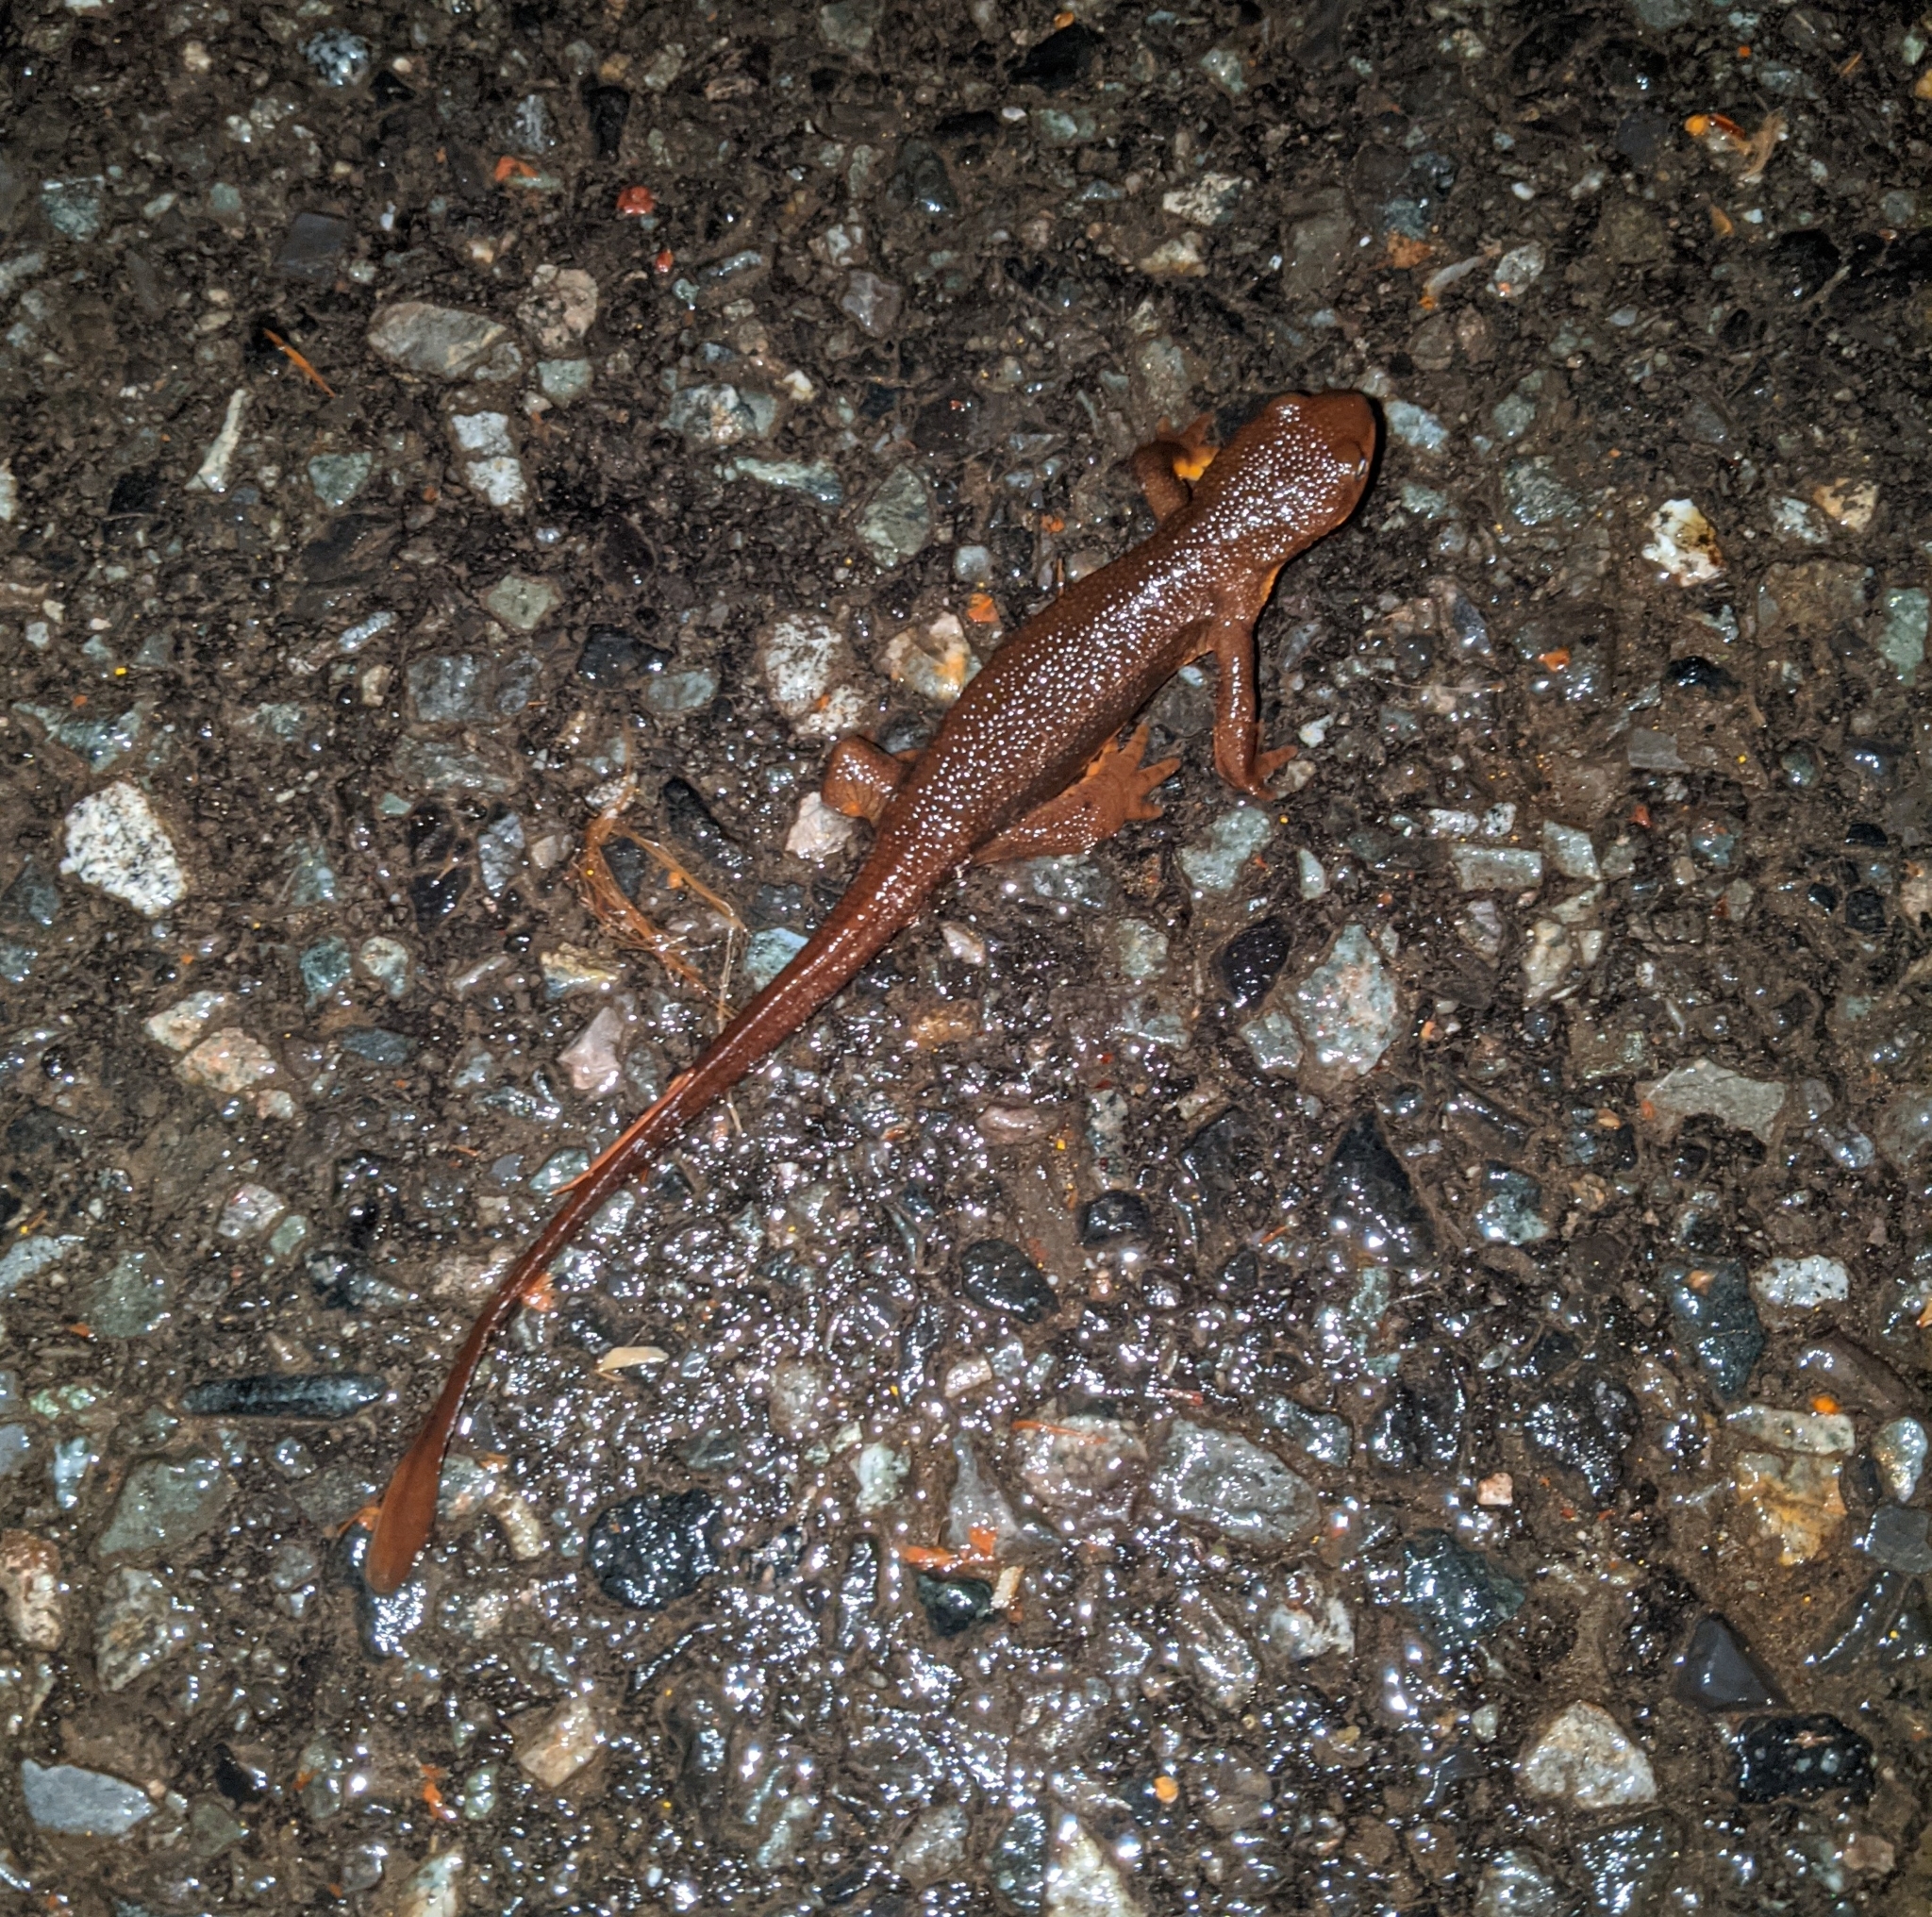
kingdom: Animalia
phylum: Chordata
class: Amphibia
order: Caudata
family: Salamandridae
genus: Taricha
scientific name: Taricha granulosa
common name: Roughskin newt
